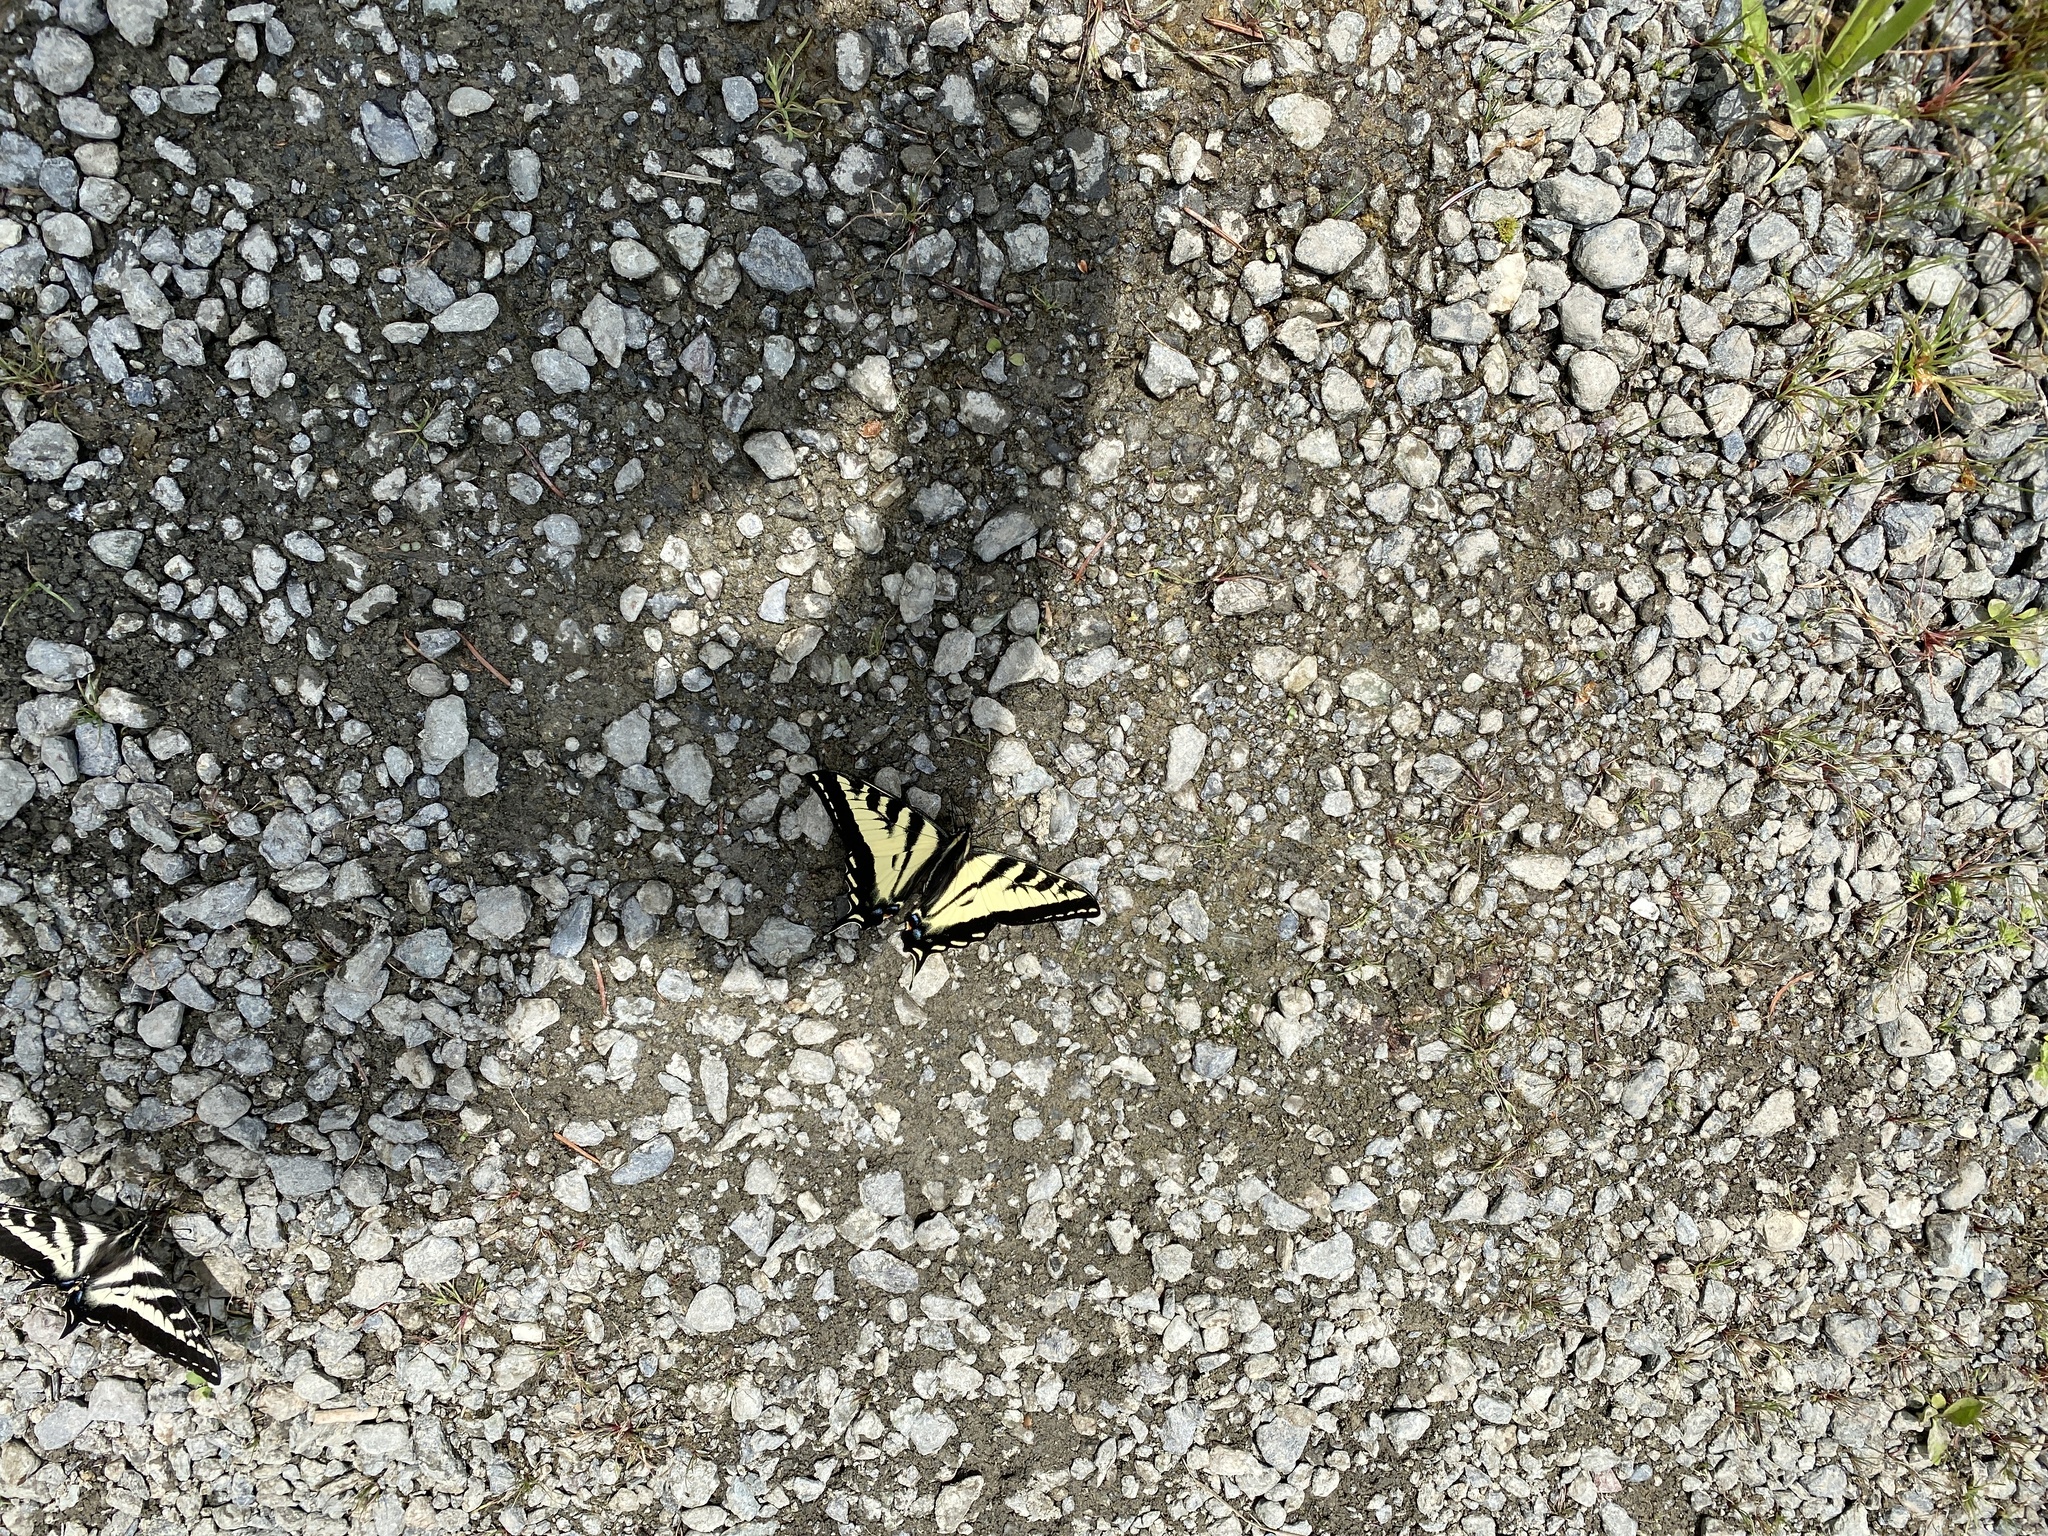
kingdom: Animalia
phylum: Arthropoda
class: Insecta
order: Lepidoptera
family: Papilionidae
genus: Papilio
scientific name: Papilio rutulus
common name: Western tiger swallowtail
